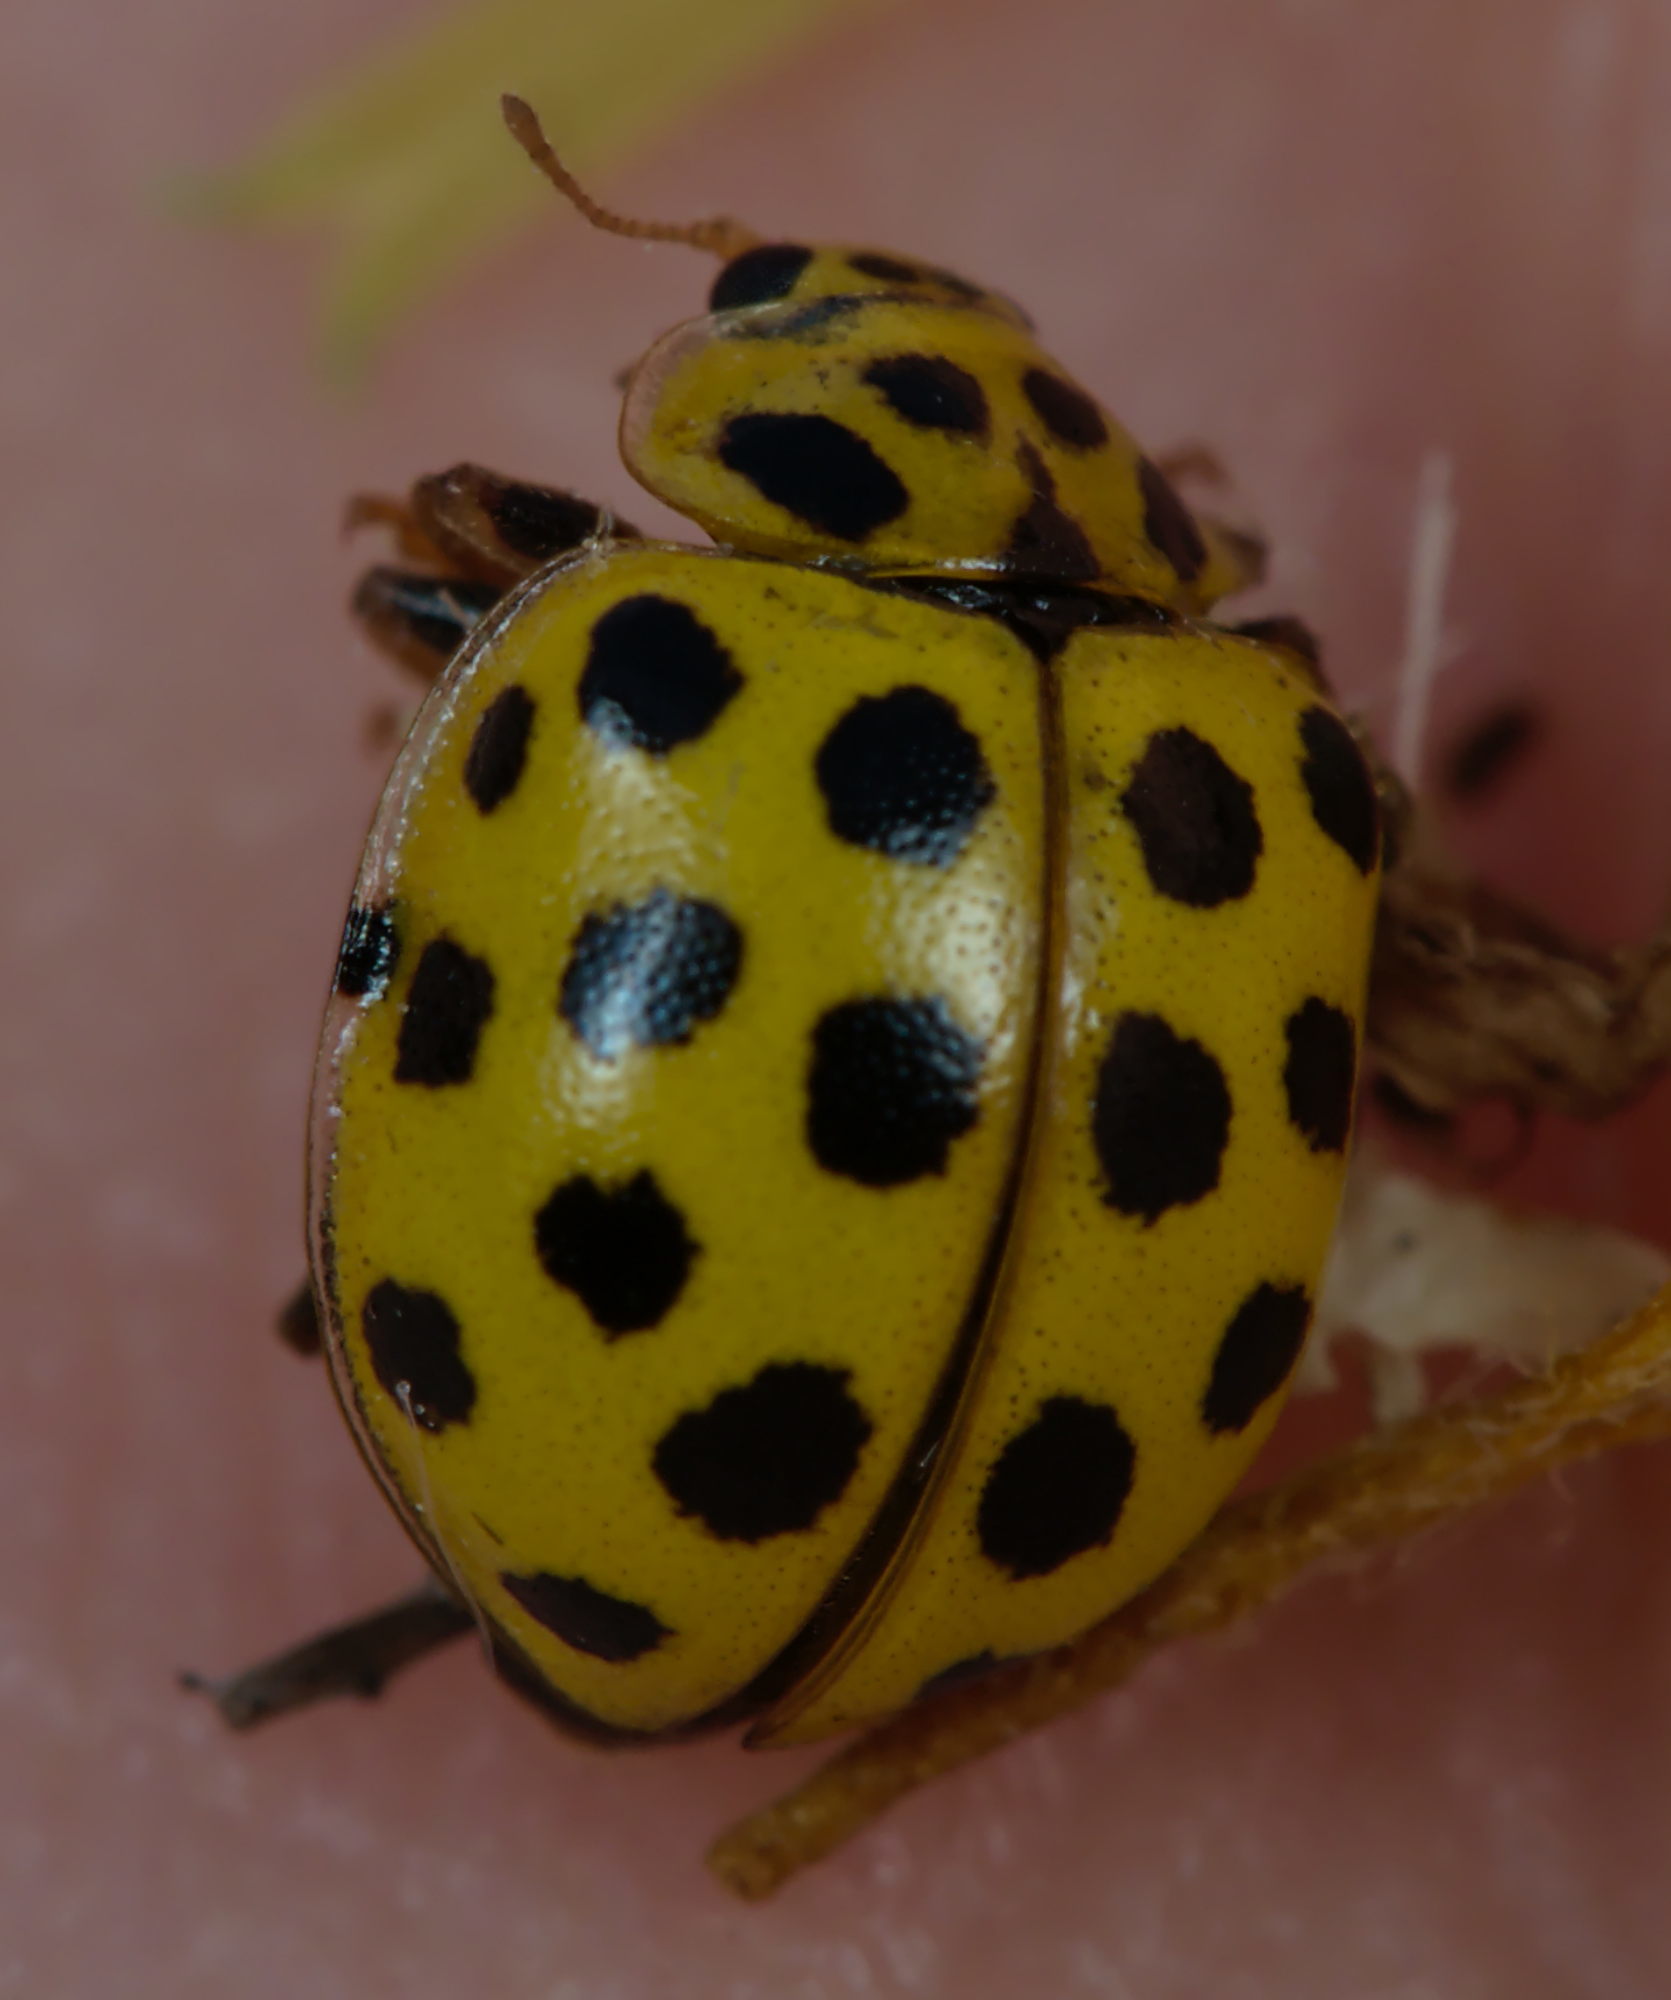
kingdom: Animalia
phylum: Arthropoda
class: Insecta
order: Coleoptera
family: Coccinellidae
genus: Psyllobora
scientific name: Psyllobora vigintiduopunctata
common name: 22-spot ladybird
